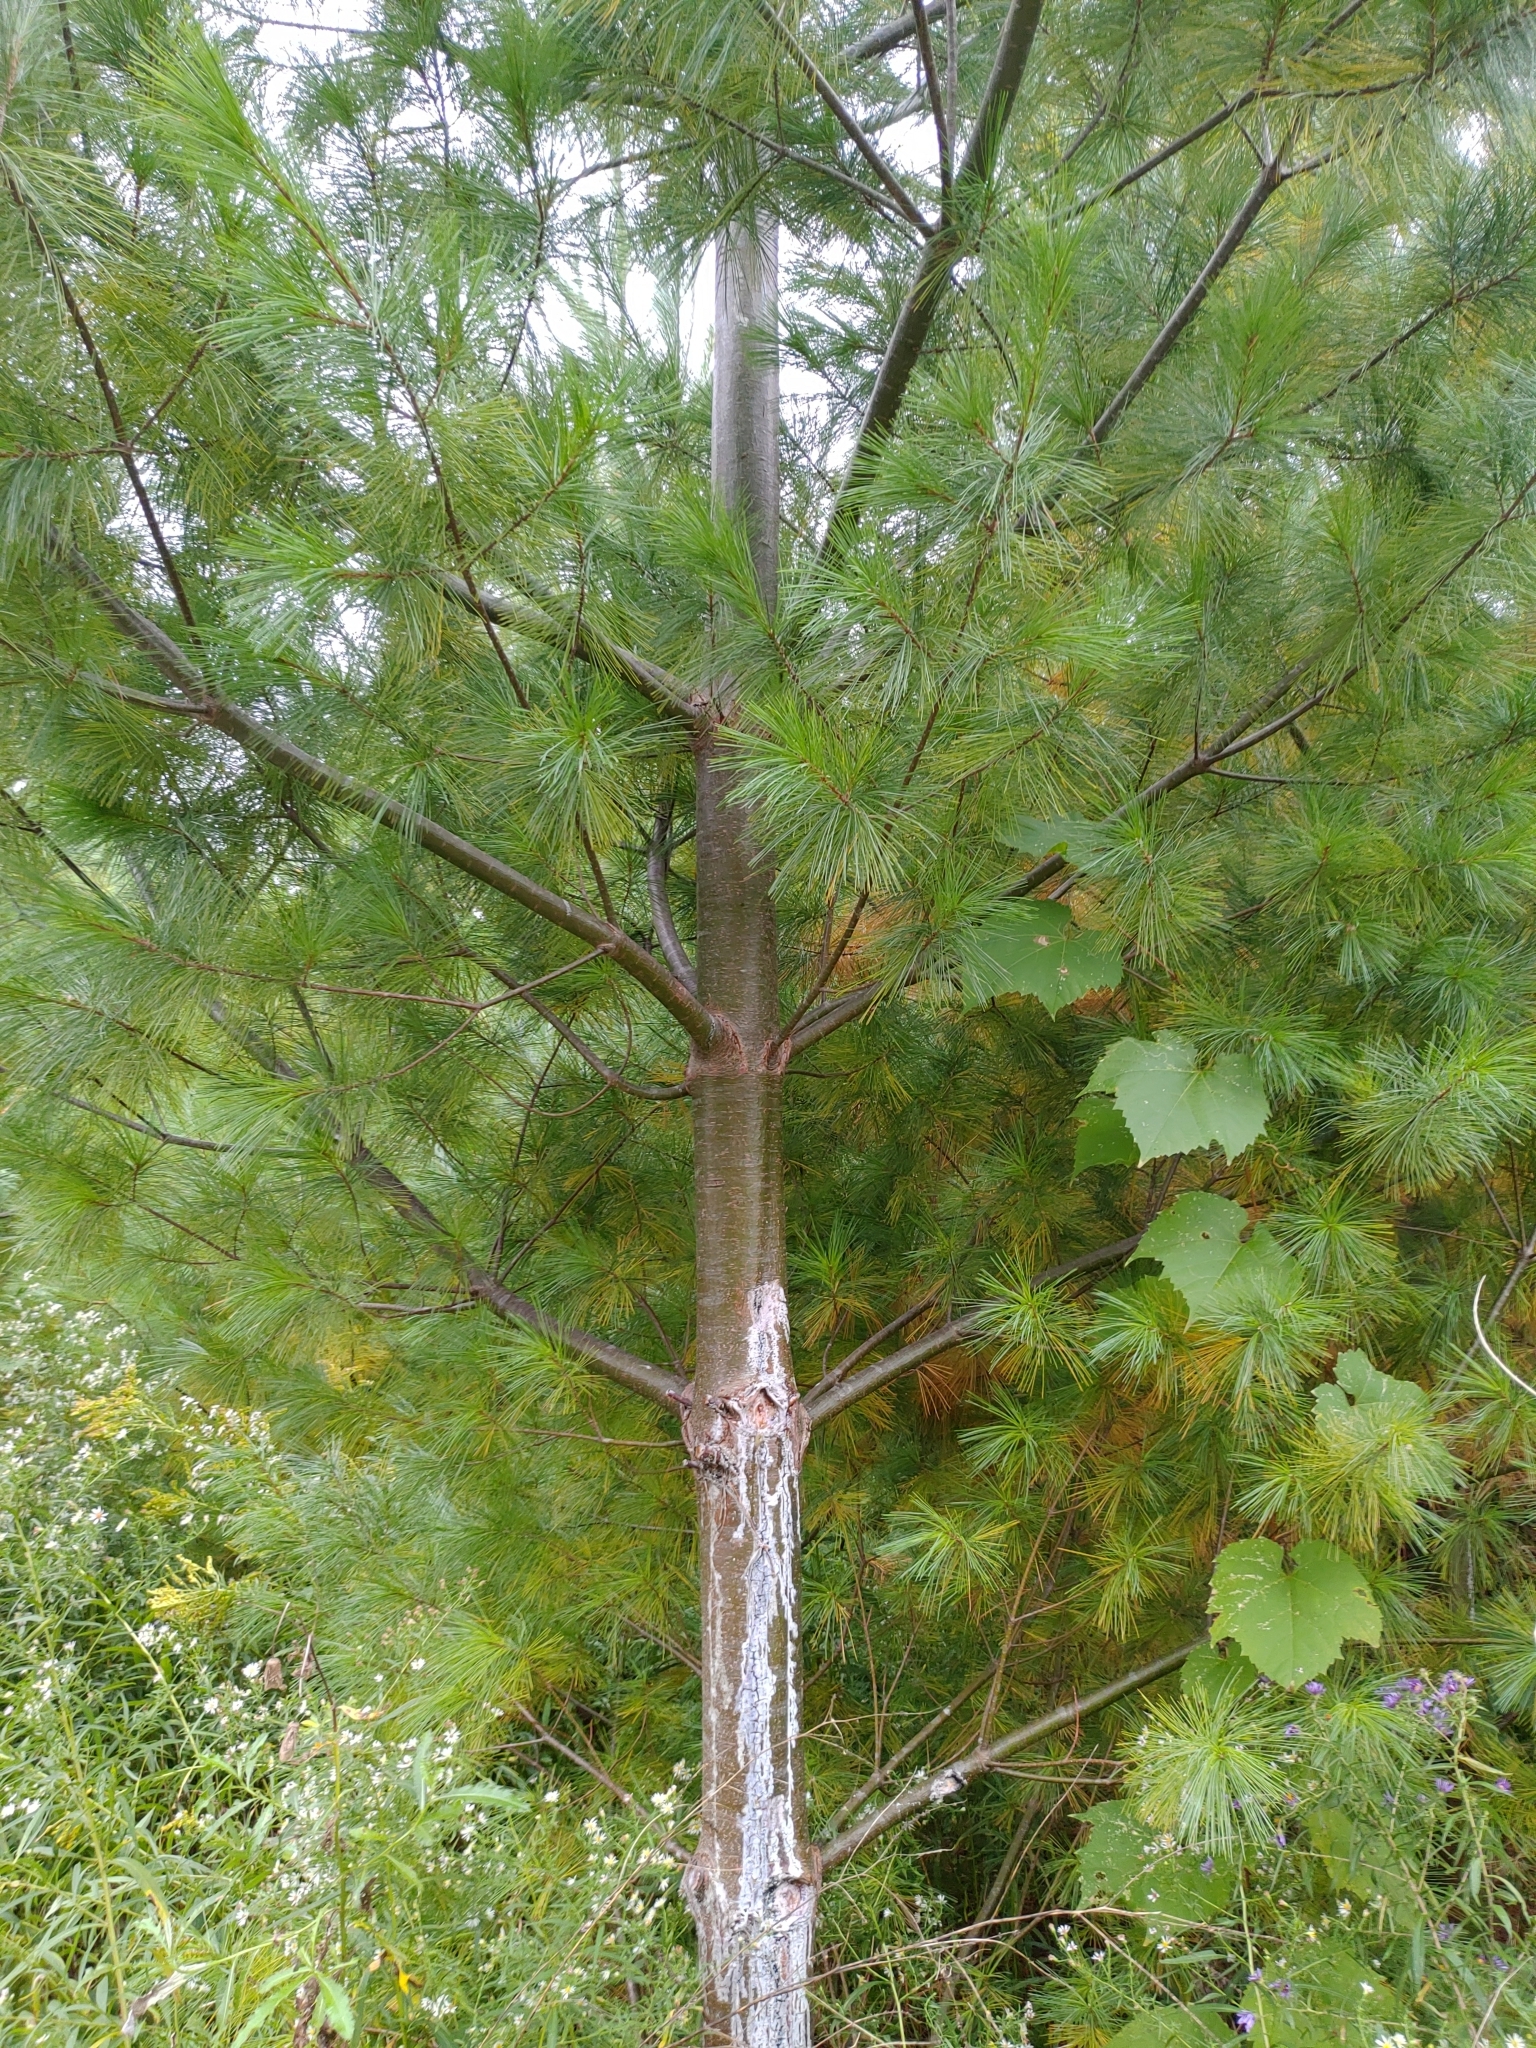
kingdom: Plantae
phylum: Tracheophyta
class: Pinopsida
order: Pinales
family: Pinaceae
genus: Pinus
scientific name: Pinus strobus
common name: Weymouth pine
